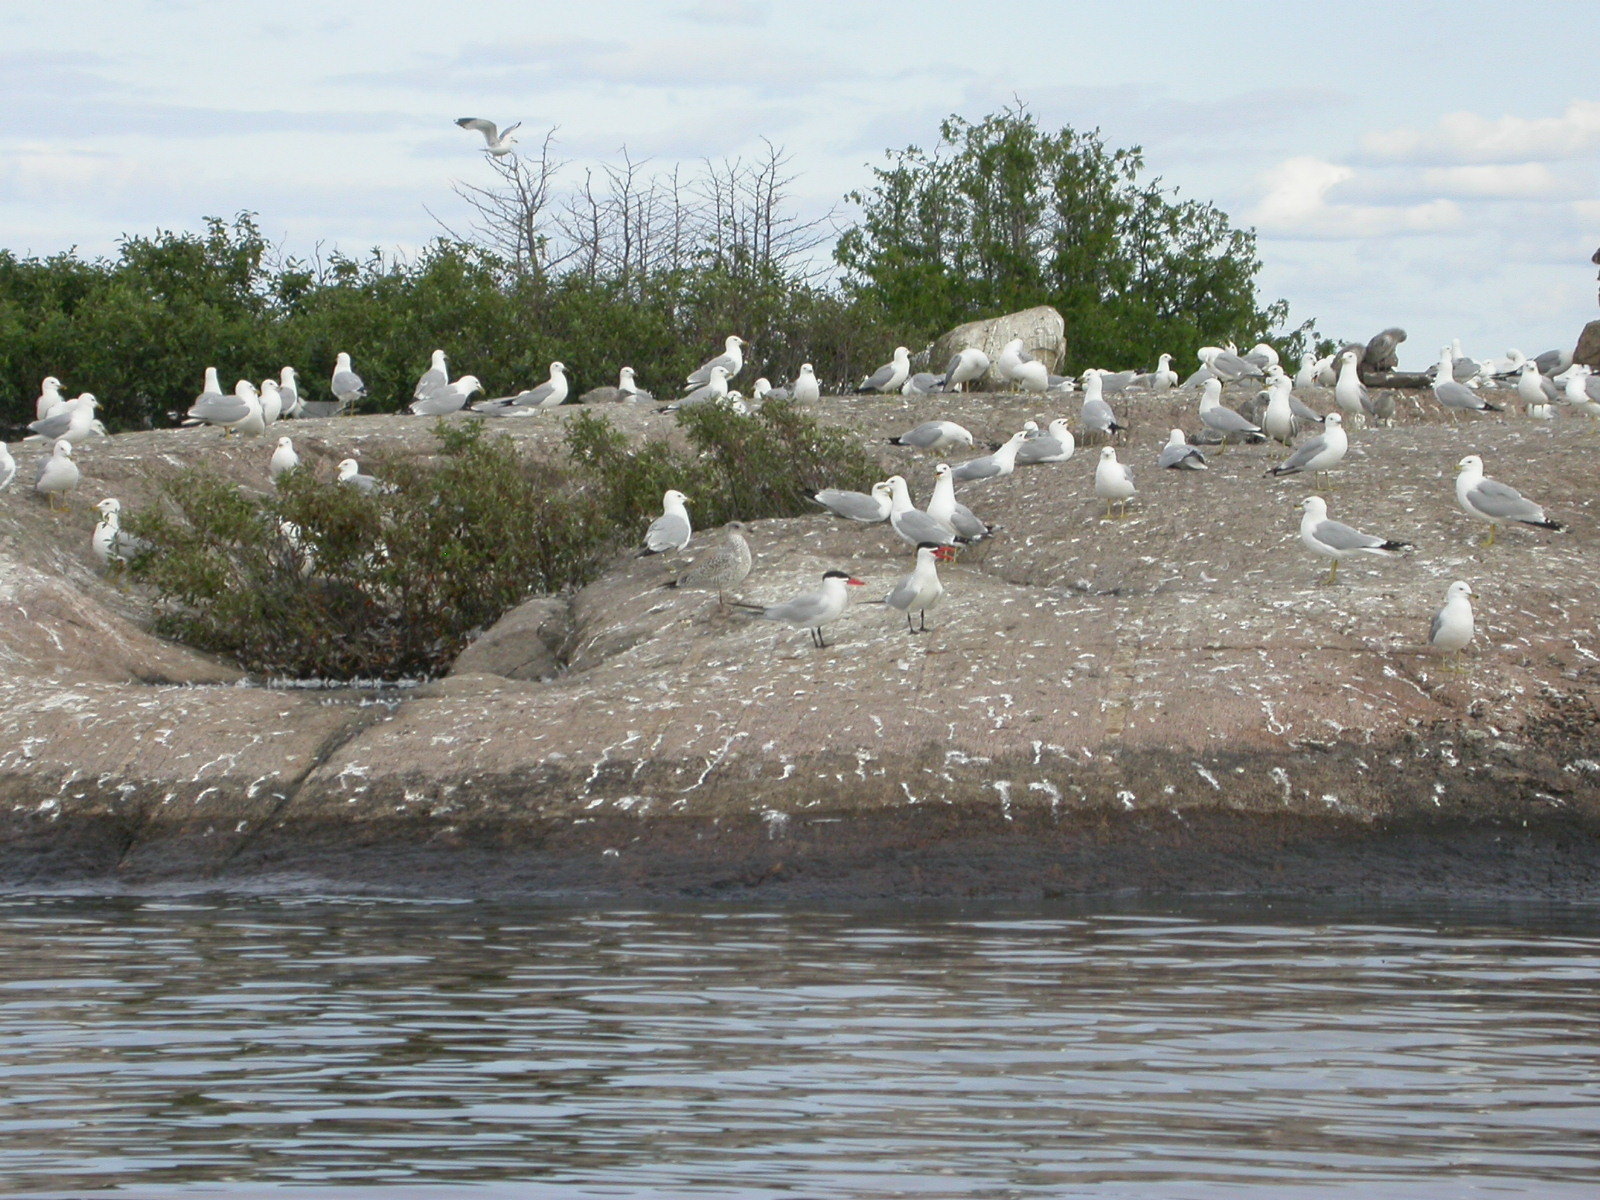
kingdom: Animalia
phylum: Chordata
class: Aves
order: Charadriiformes
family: Laridae
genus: Larus
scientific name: Larus delawarensis
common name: Ring-billed gull
